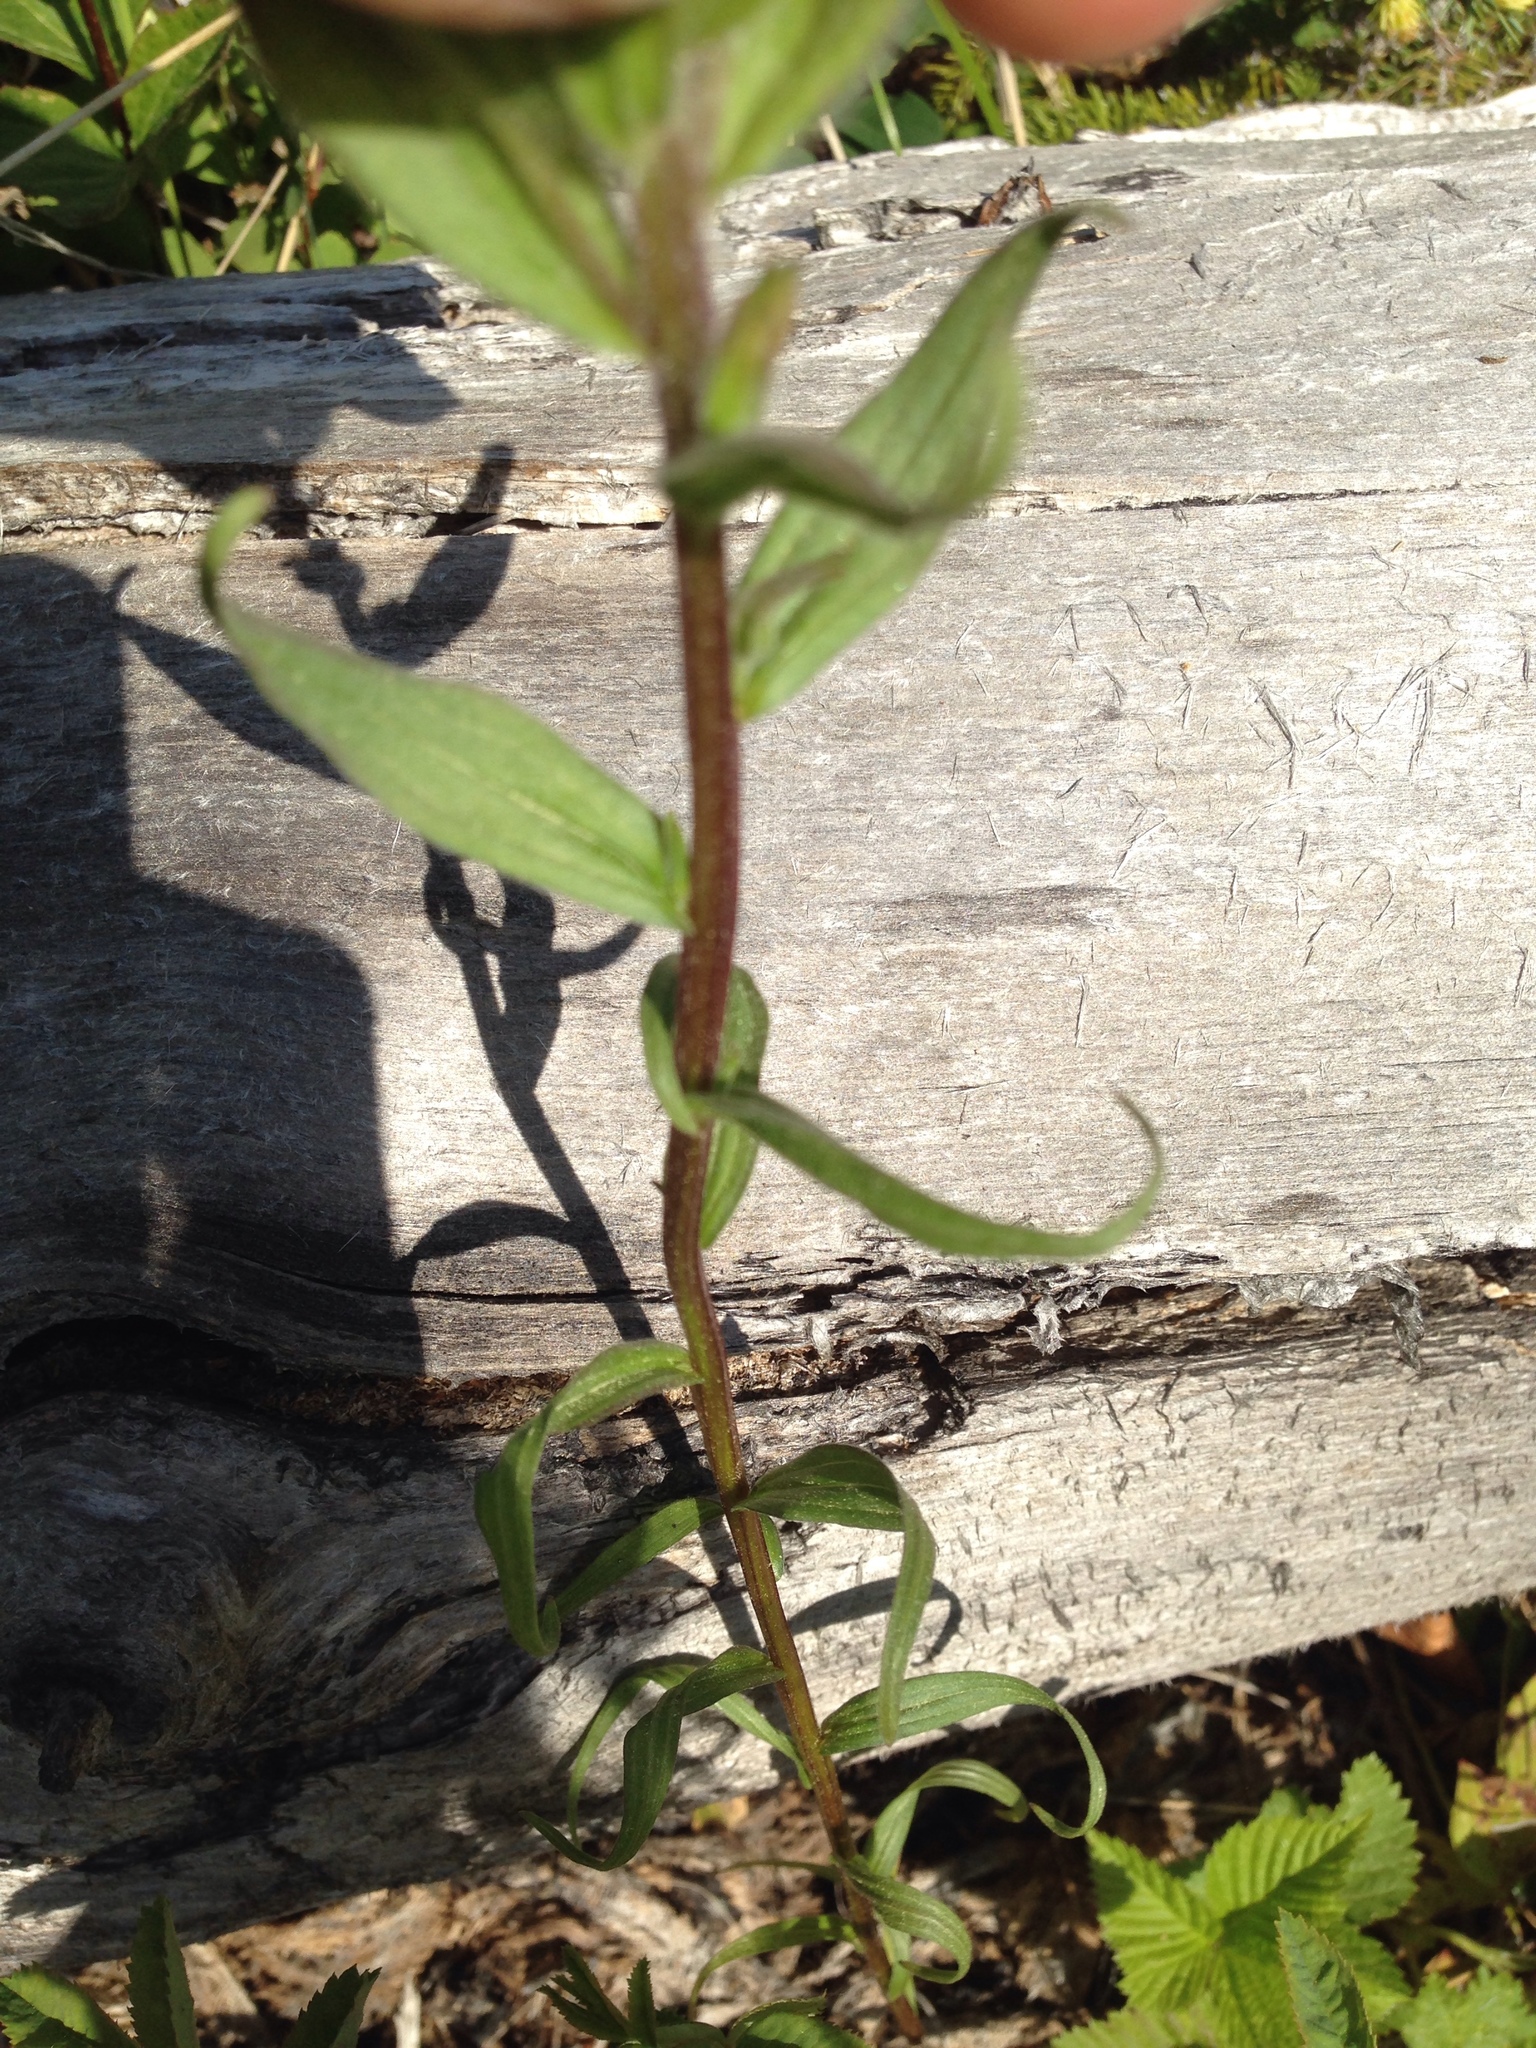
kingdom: Plantae
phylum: Tracheophyta
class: Magnoliopsida
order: Lamiales
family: Orobanchaceae
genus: Castilleja
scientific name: Castilleja miniata
